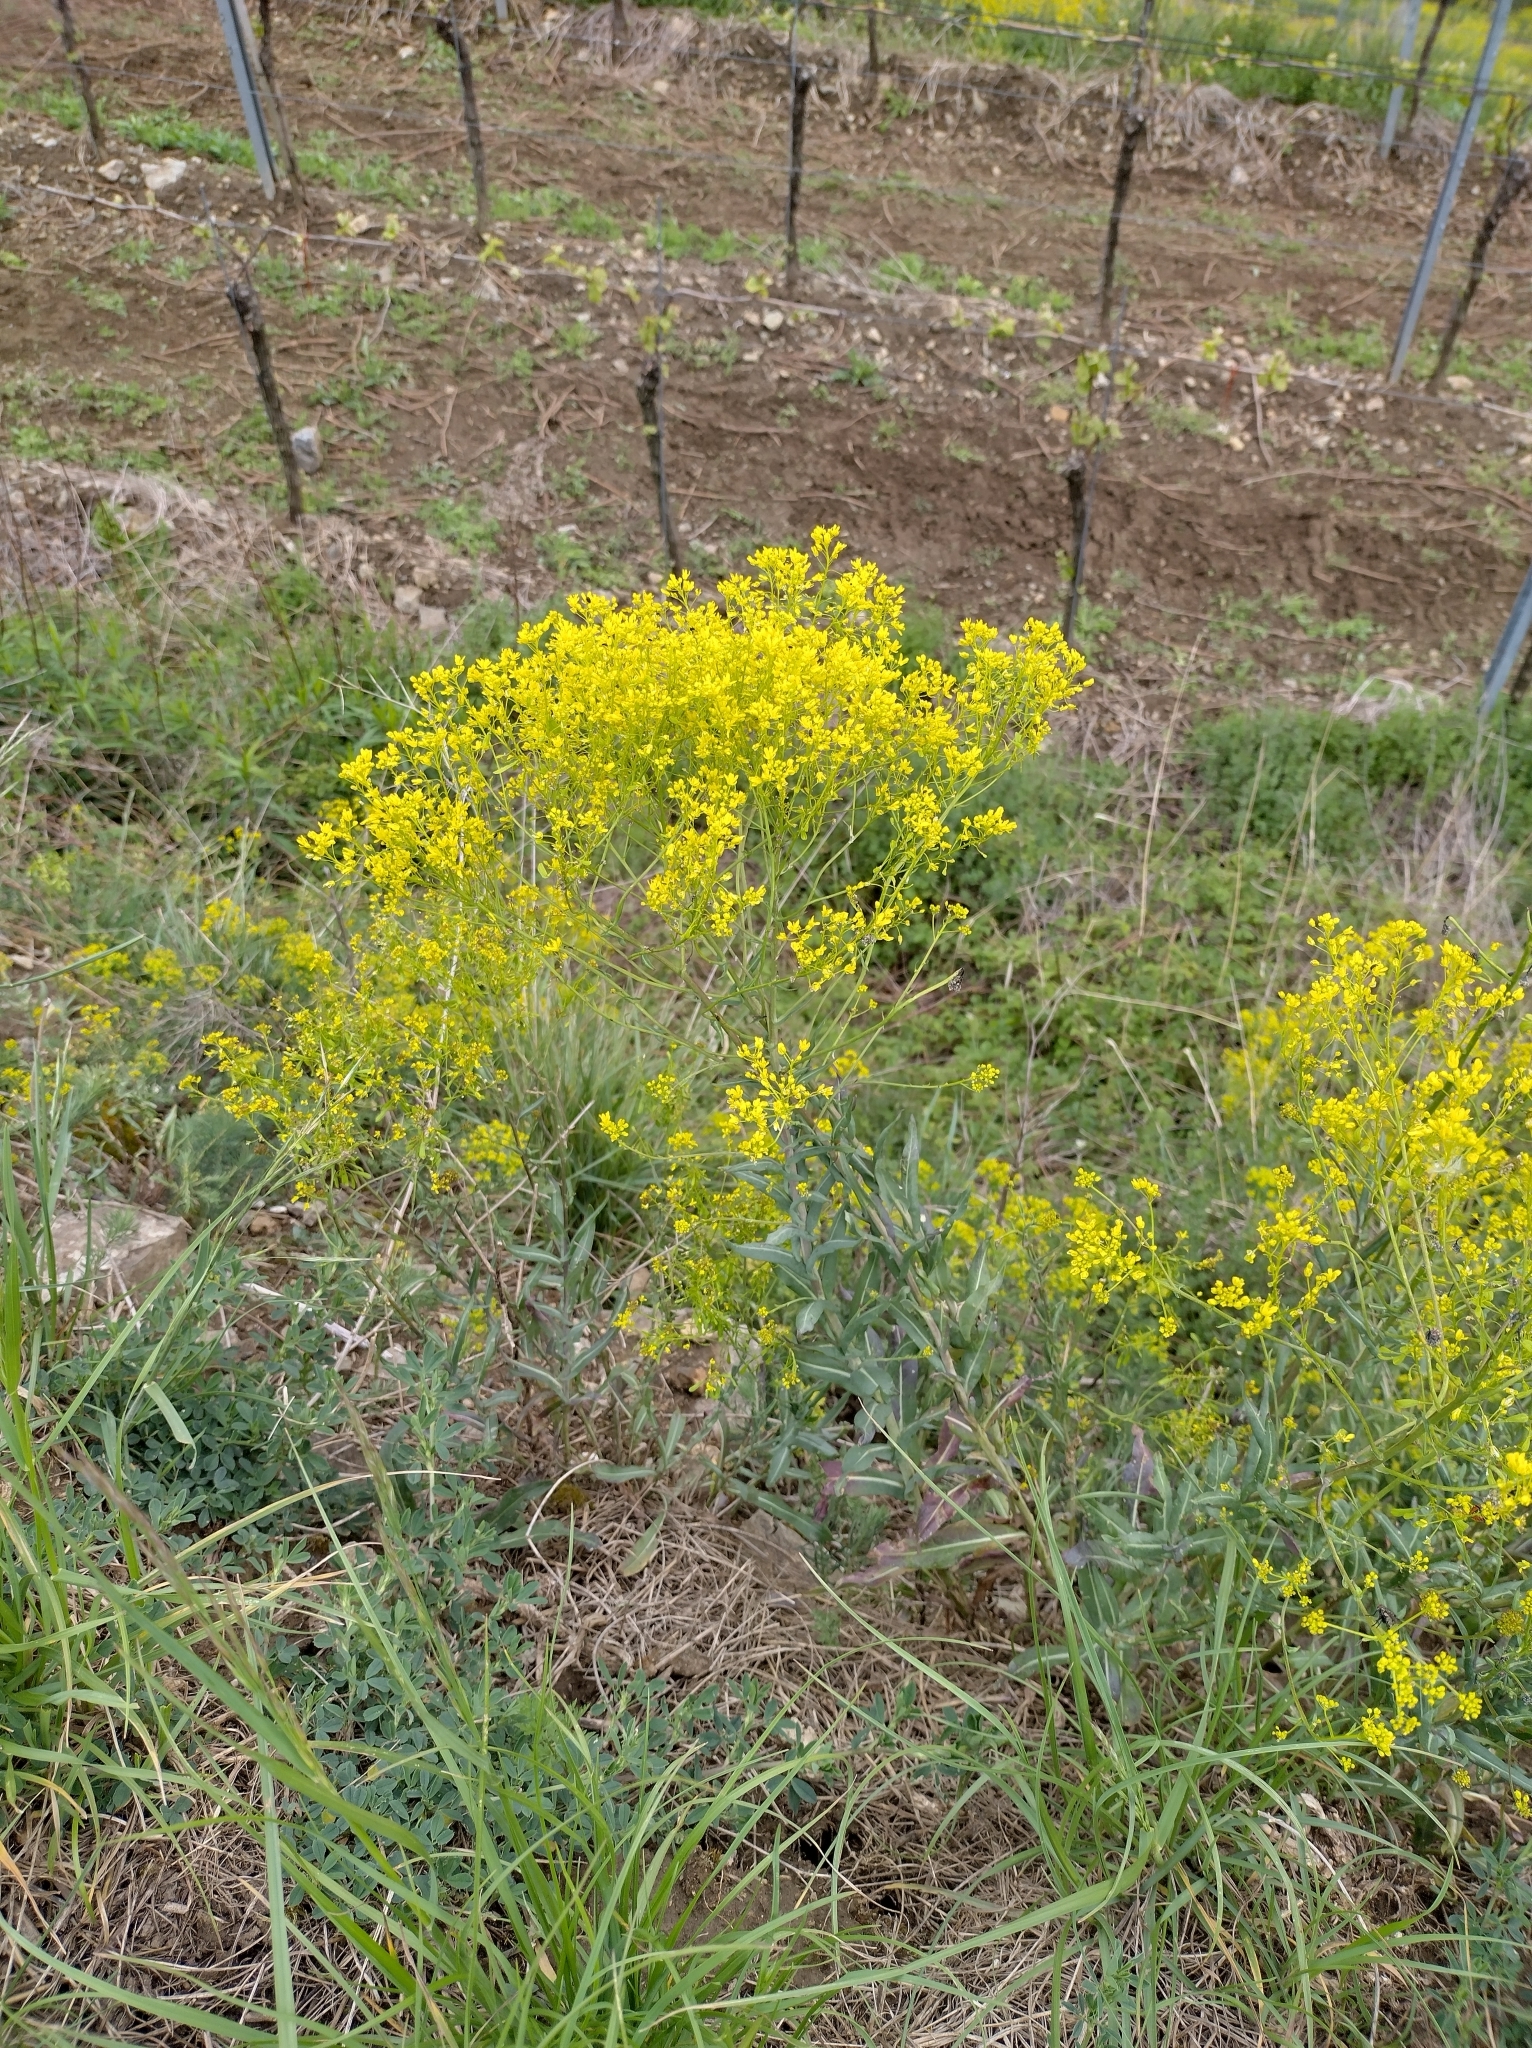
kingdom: Plantae
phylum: Tracheophyta
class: Magnoliopsida
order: Brassicales
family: Brassicaceae
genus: Isatis
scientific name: Isatis tinctoria
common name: Woad
